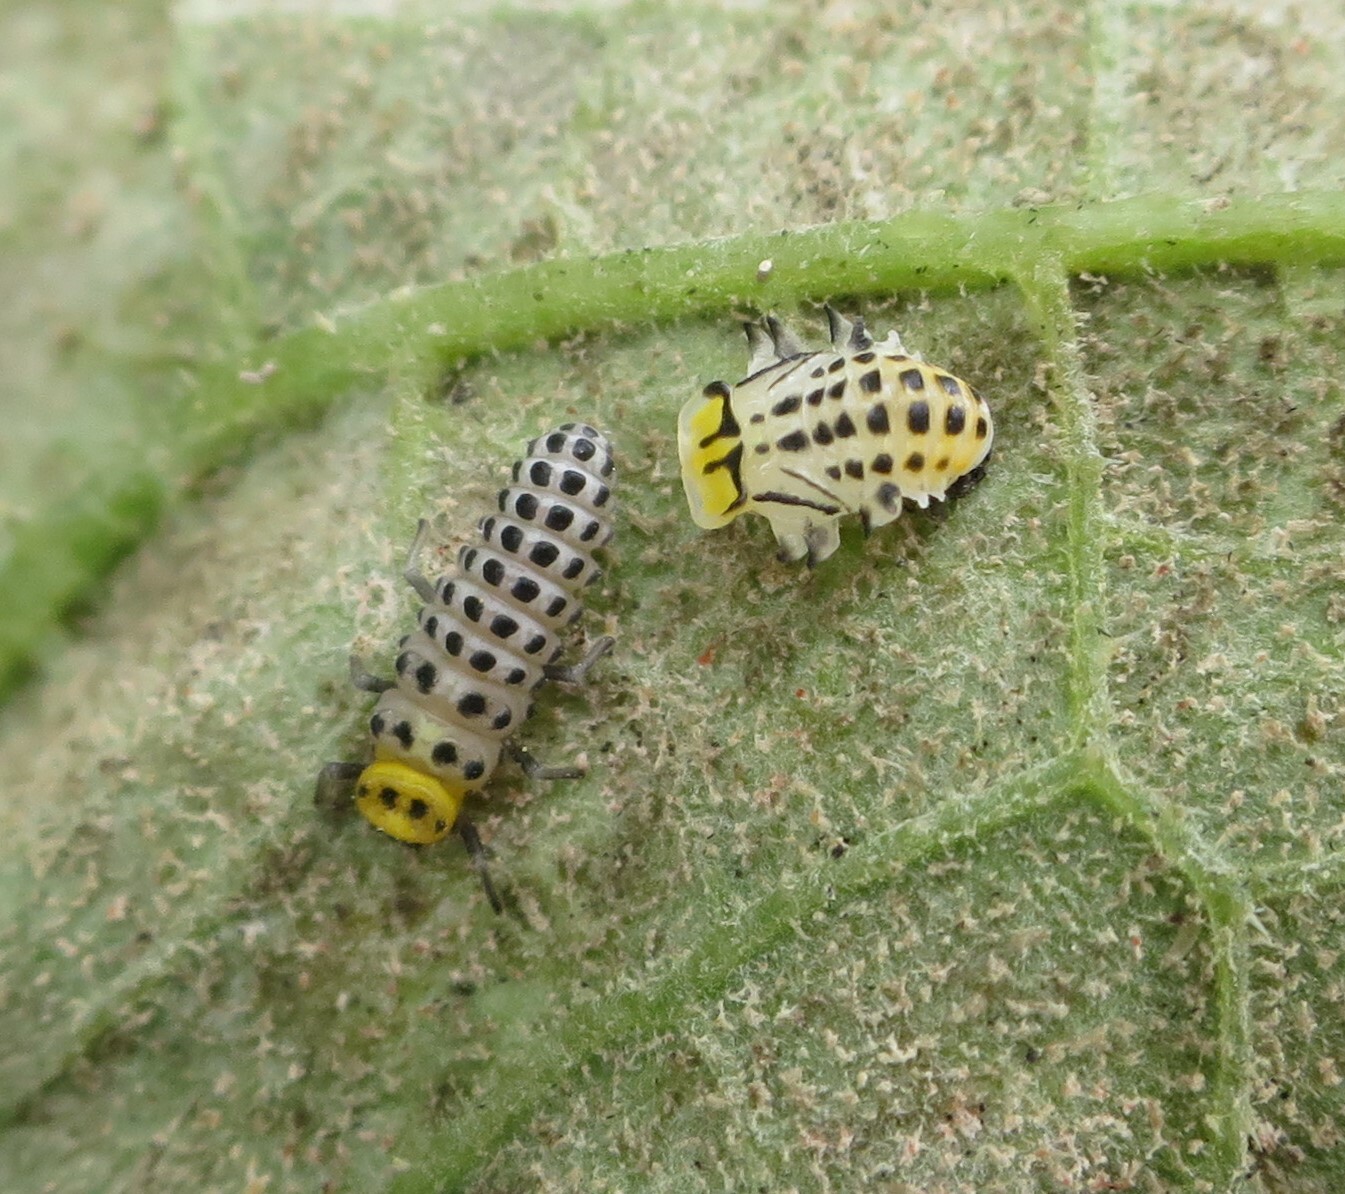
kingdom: Animalia
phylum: Arthropoda
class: Insecta
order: Coleoptera
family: Coccinellidae
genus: Illeis
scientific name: Illeis galbula
